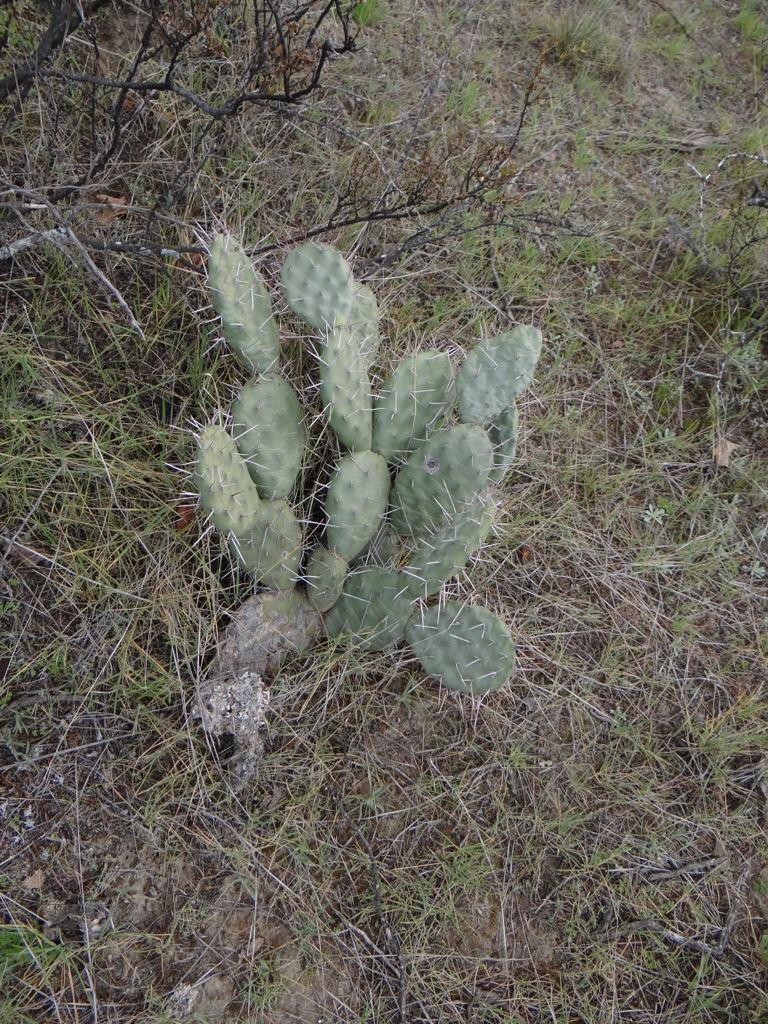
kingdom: Plantae
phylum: Tracheophyta
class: Magnoliopsida
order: Caryophyllales
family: Cactaceae
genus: Opuntia
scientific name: Opuntia sulphurea
